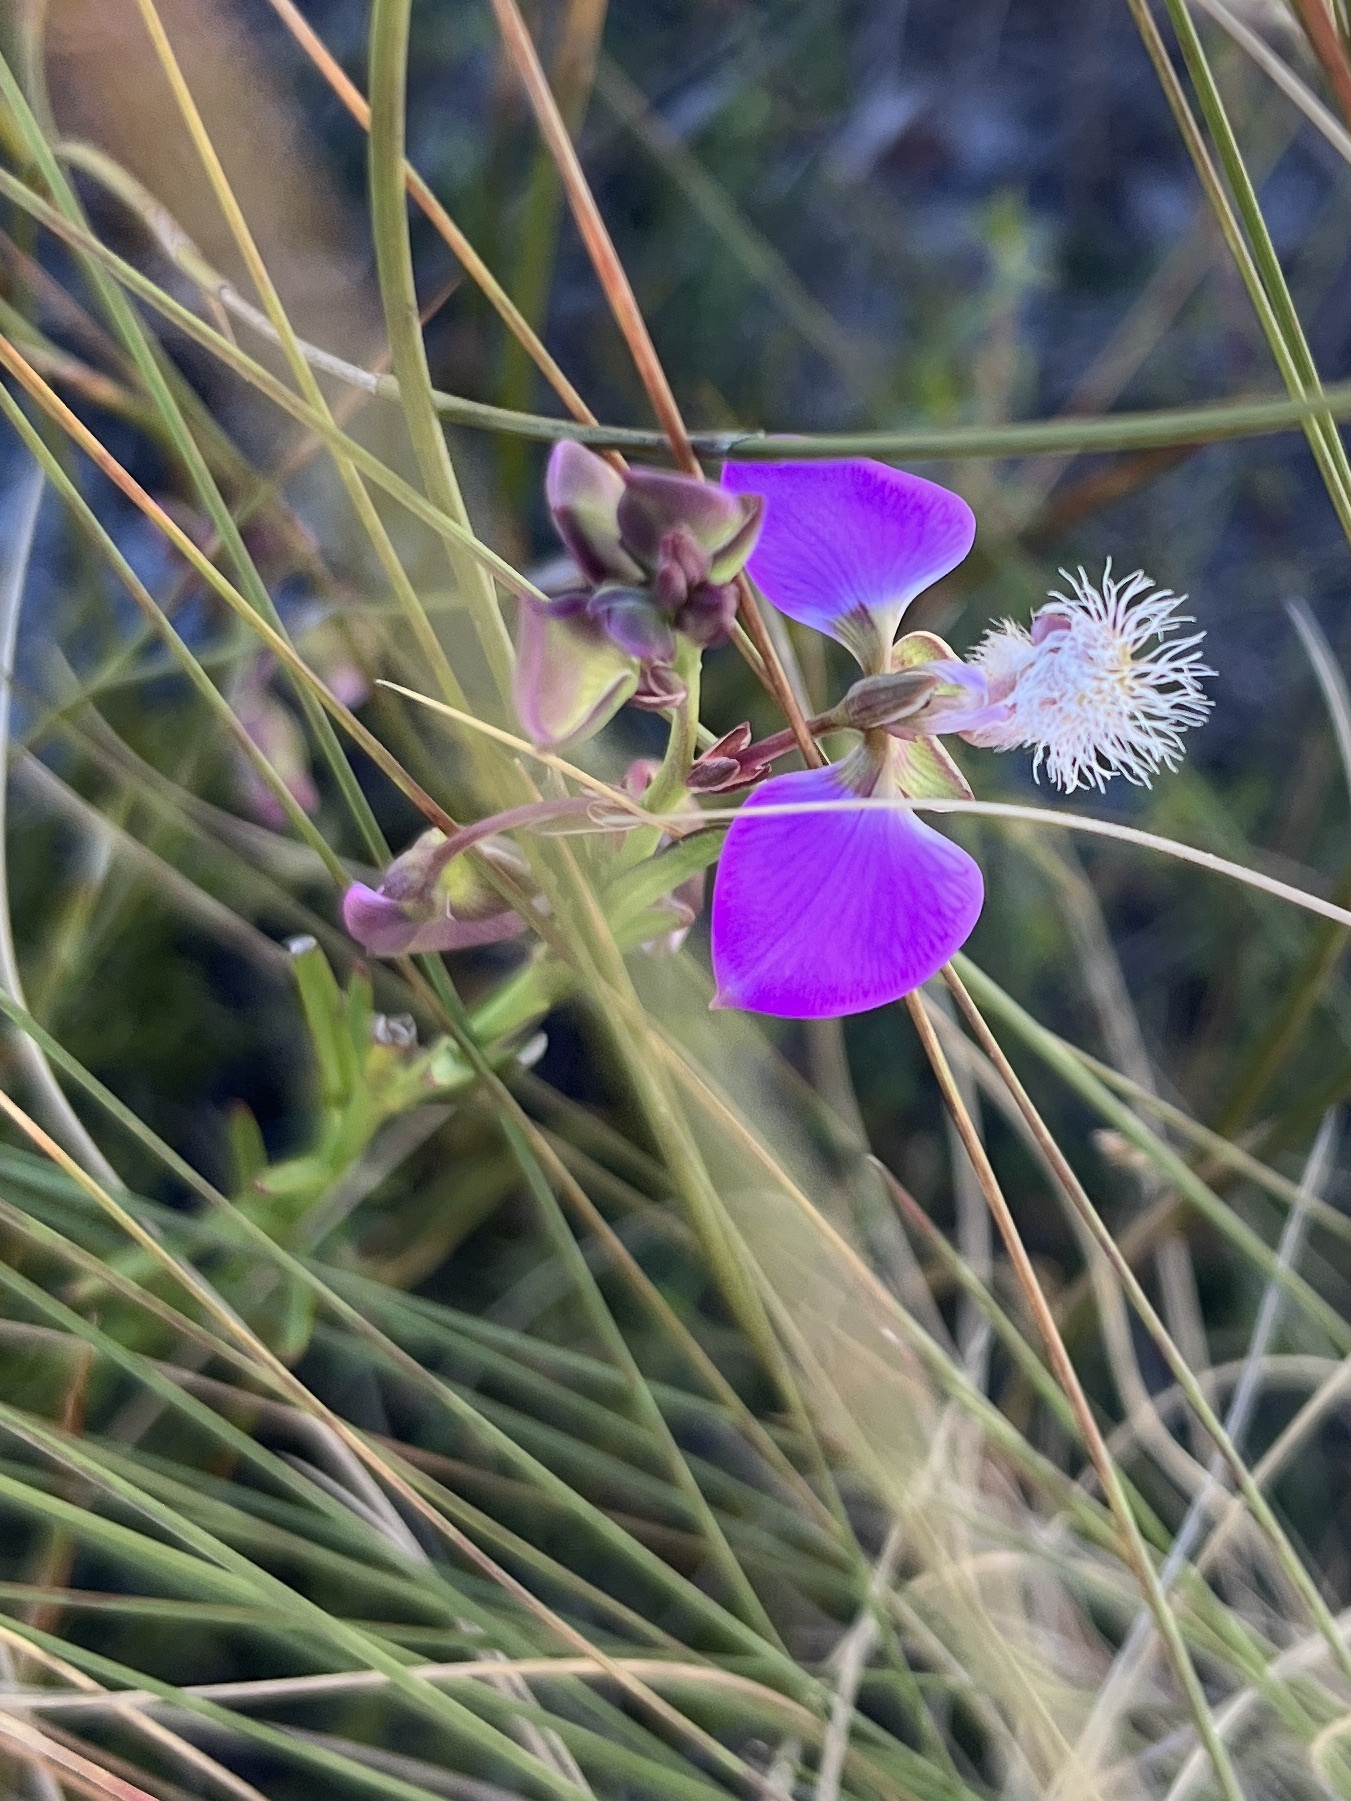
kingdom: Plantae
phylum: Tracheophyta
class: Magnoliopsida
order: Fabales
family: Polygalaceae
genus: Polygala
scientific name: Polygala bracteolata
